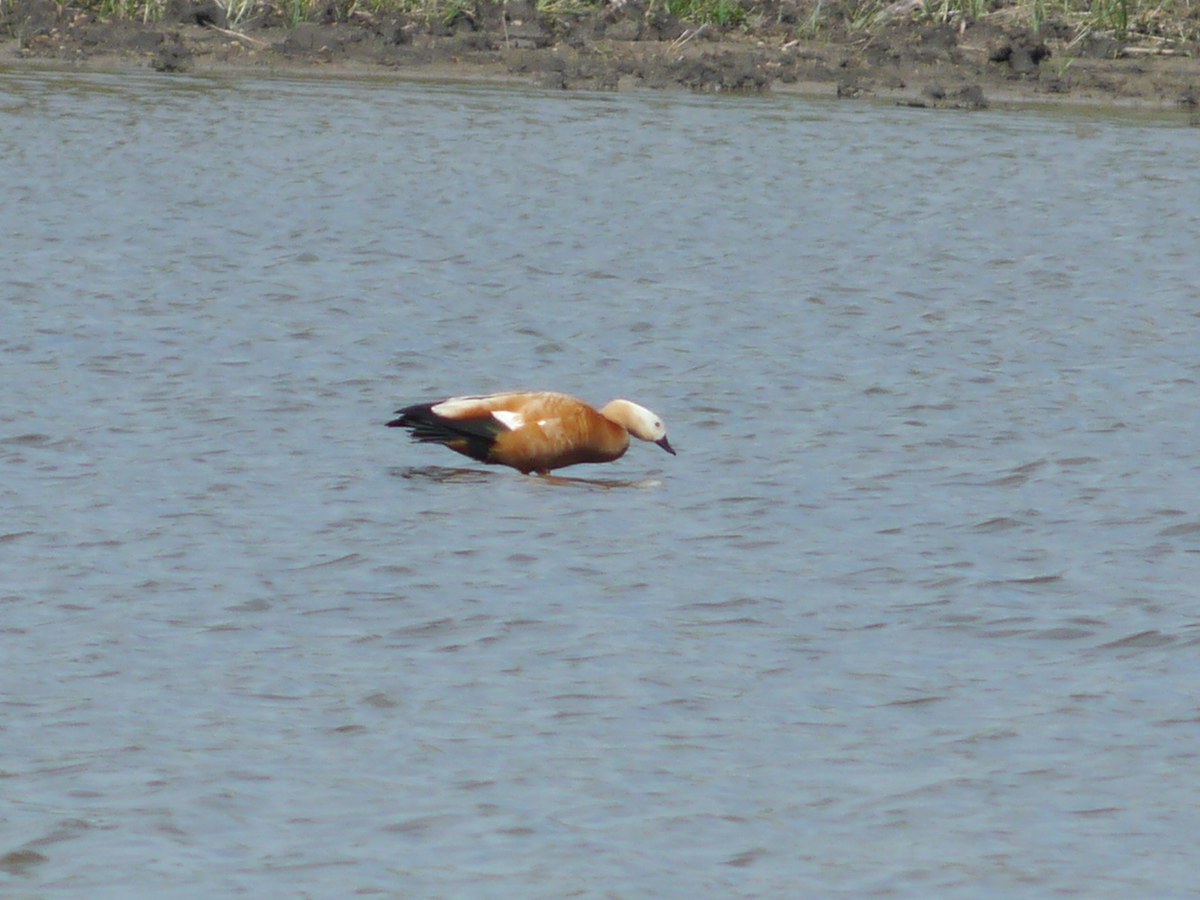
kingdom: Animalia
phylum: Chordata
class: Aves
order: Anseriformes
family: Anatidae
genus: Tadorna
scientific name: Tadorna ferruginea
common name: Ruddy shelduck
